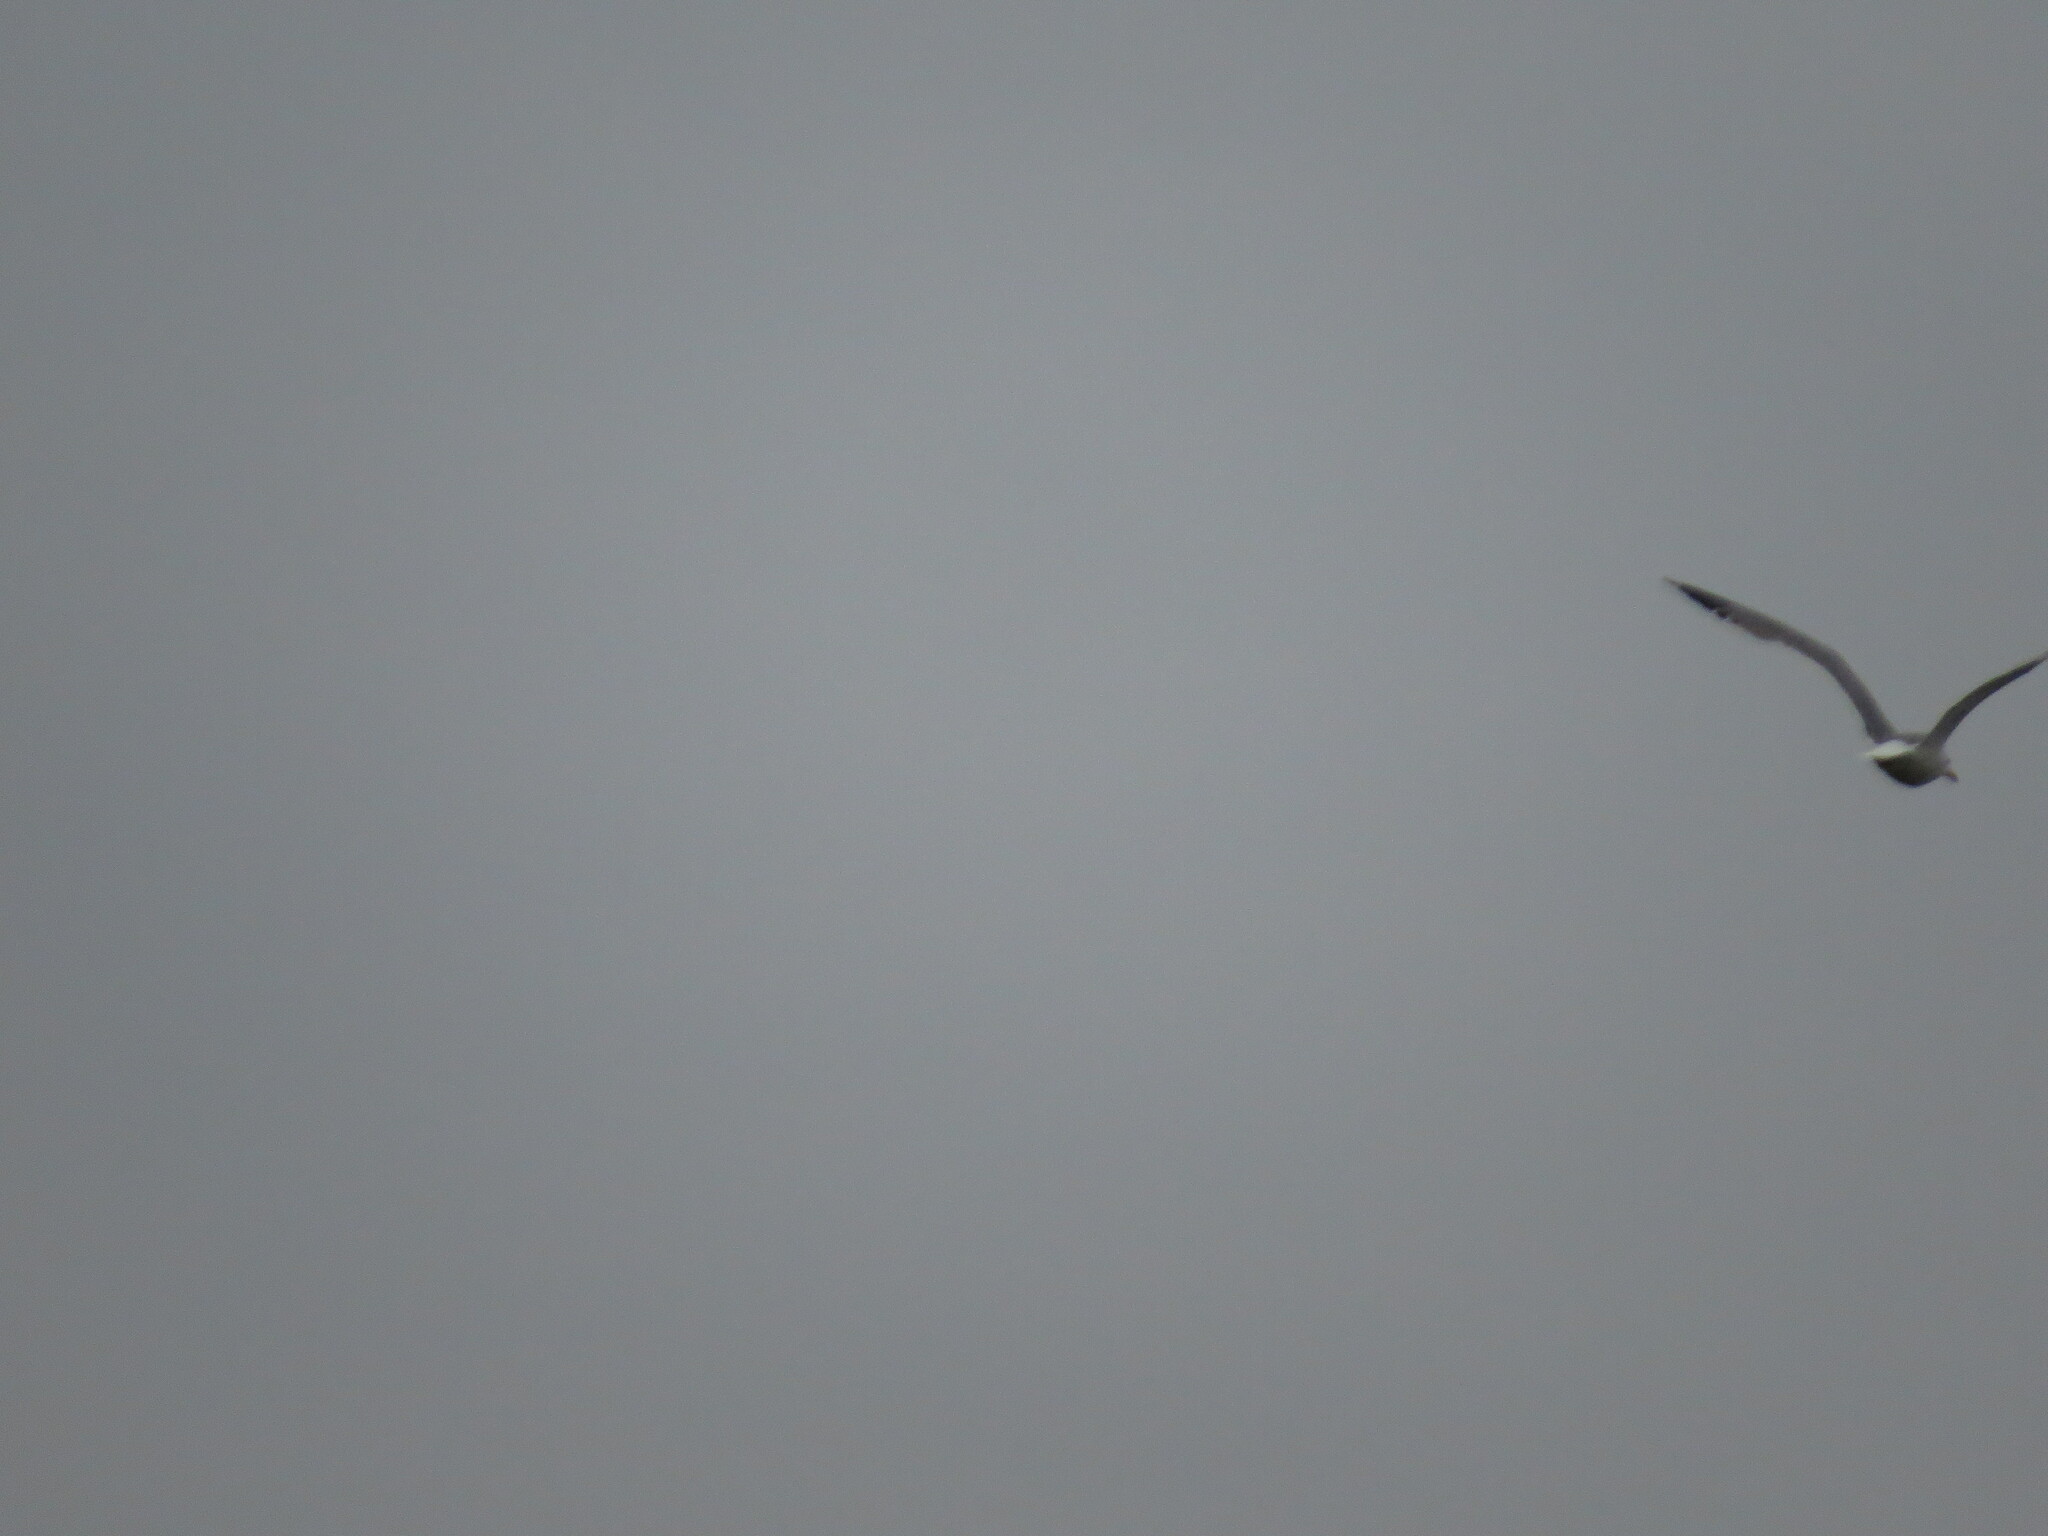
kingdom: Animalia
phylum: Chordata
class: Aves
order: Charadriiformes
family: Laridae
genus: Larus
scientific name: Larus fuscus
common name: Lesser black-backed gull
